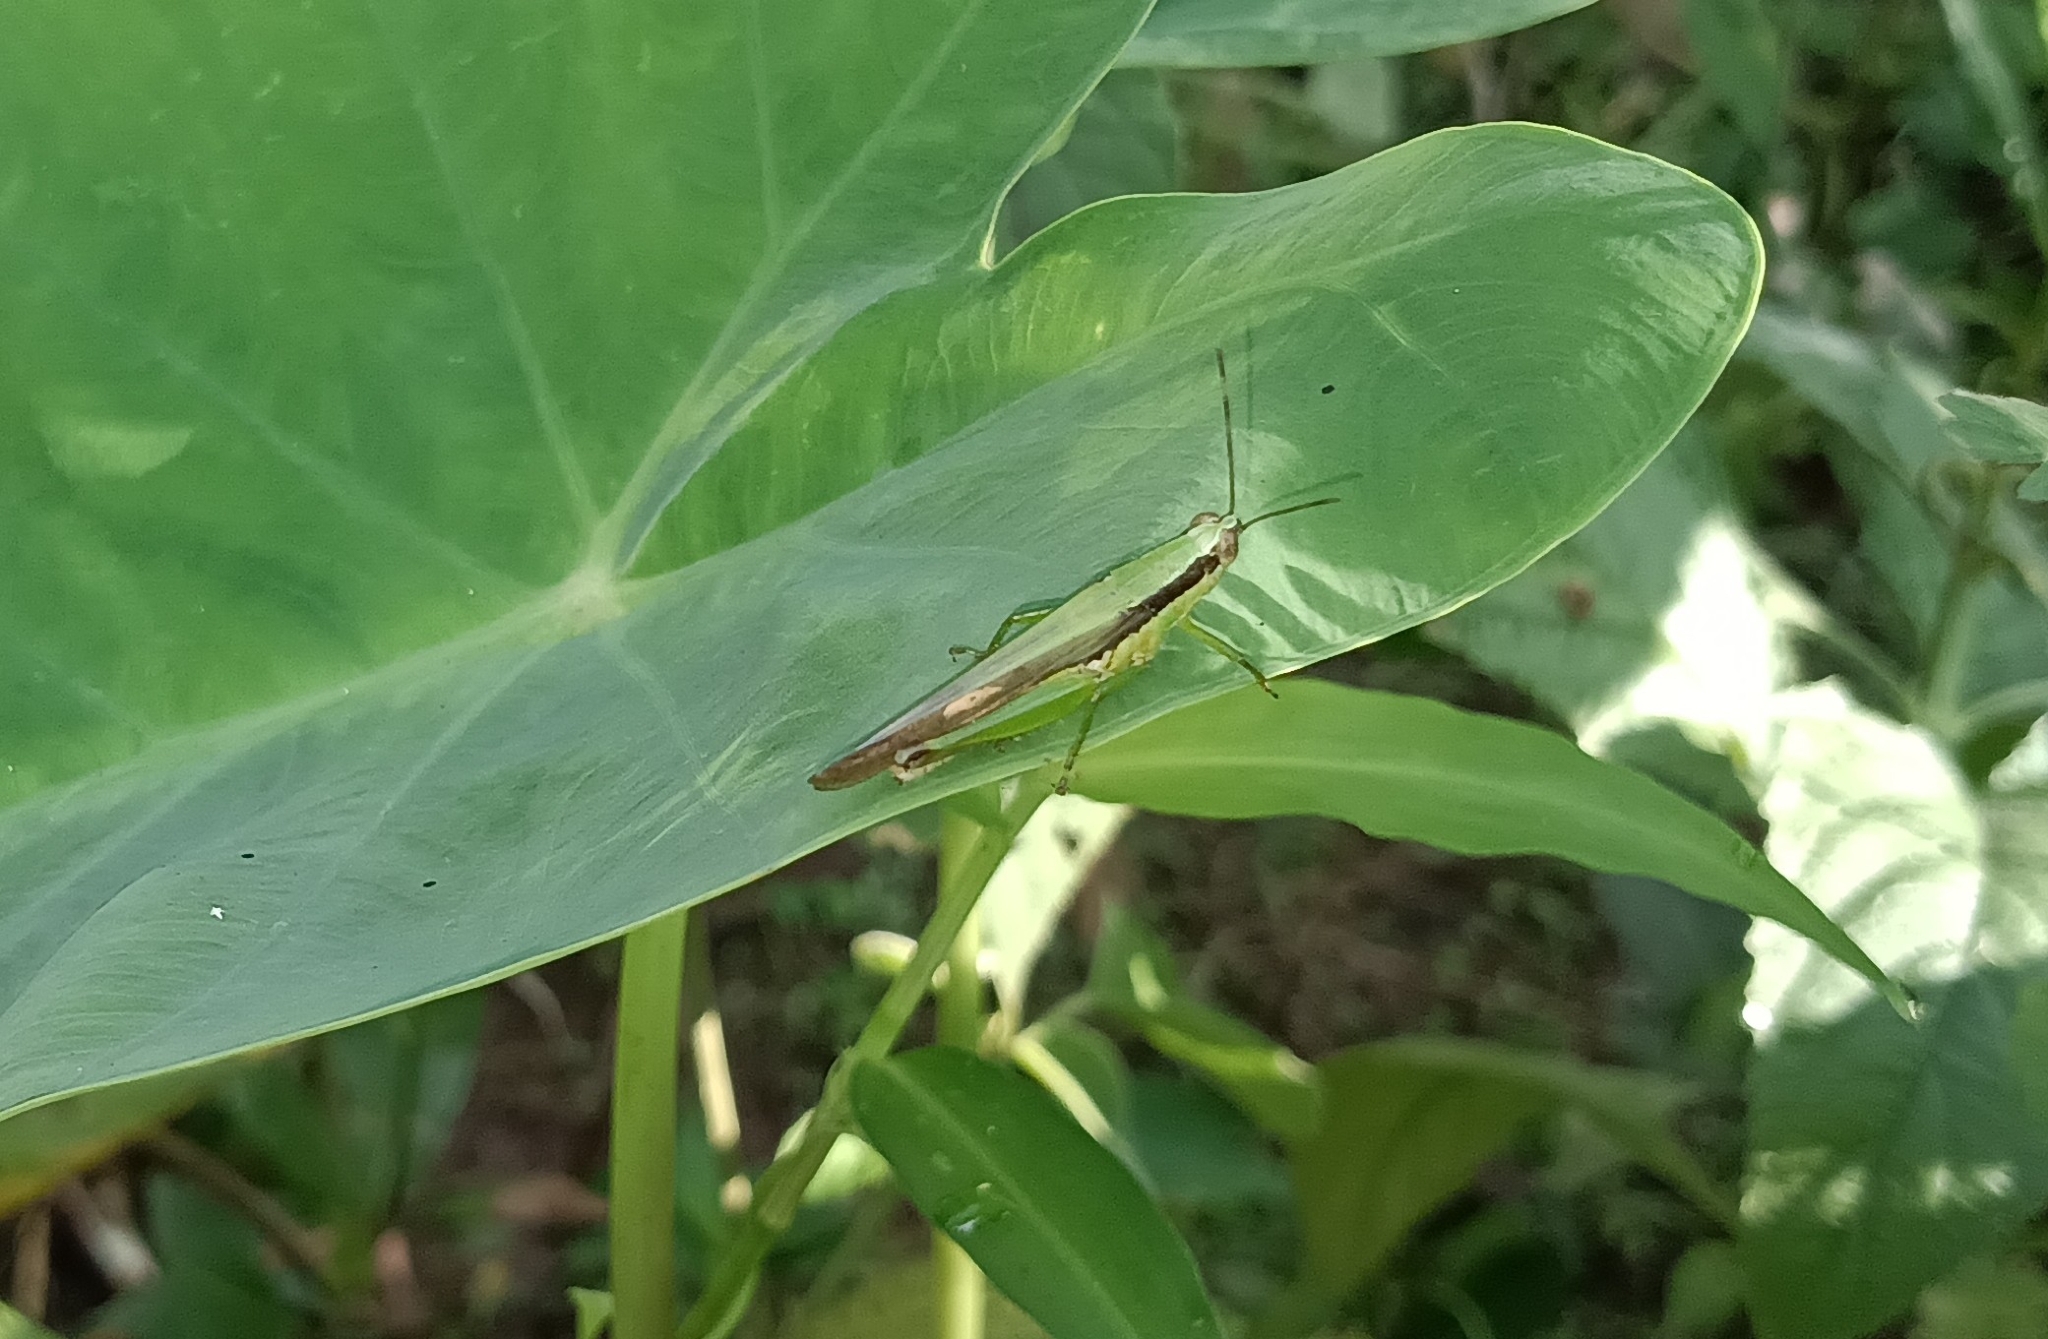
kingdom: Animalia
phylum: Arthropoda
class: Insecta
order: Orthoptera
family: Acrididae
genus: Gesonula
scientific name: Gesonula mundata
